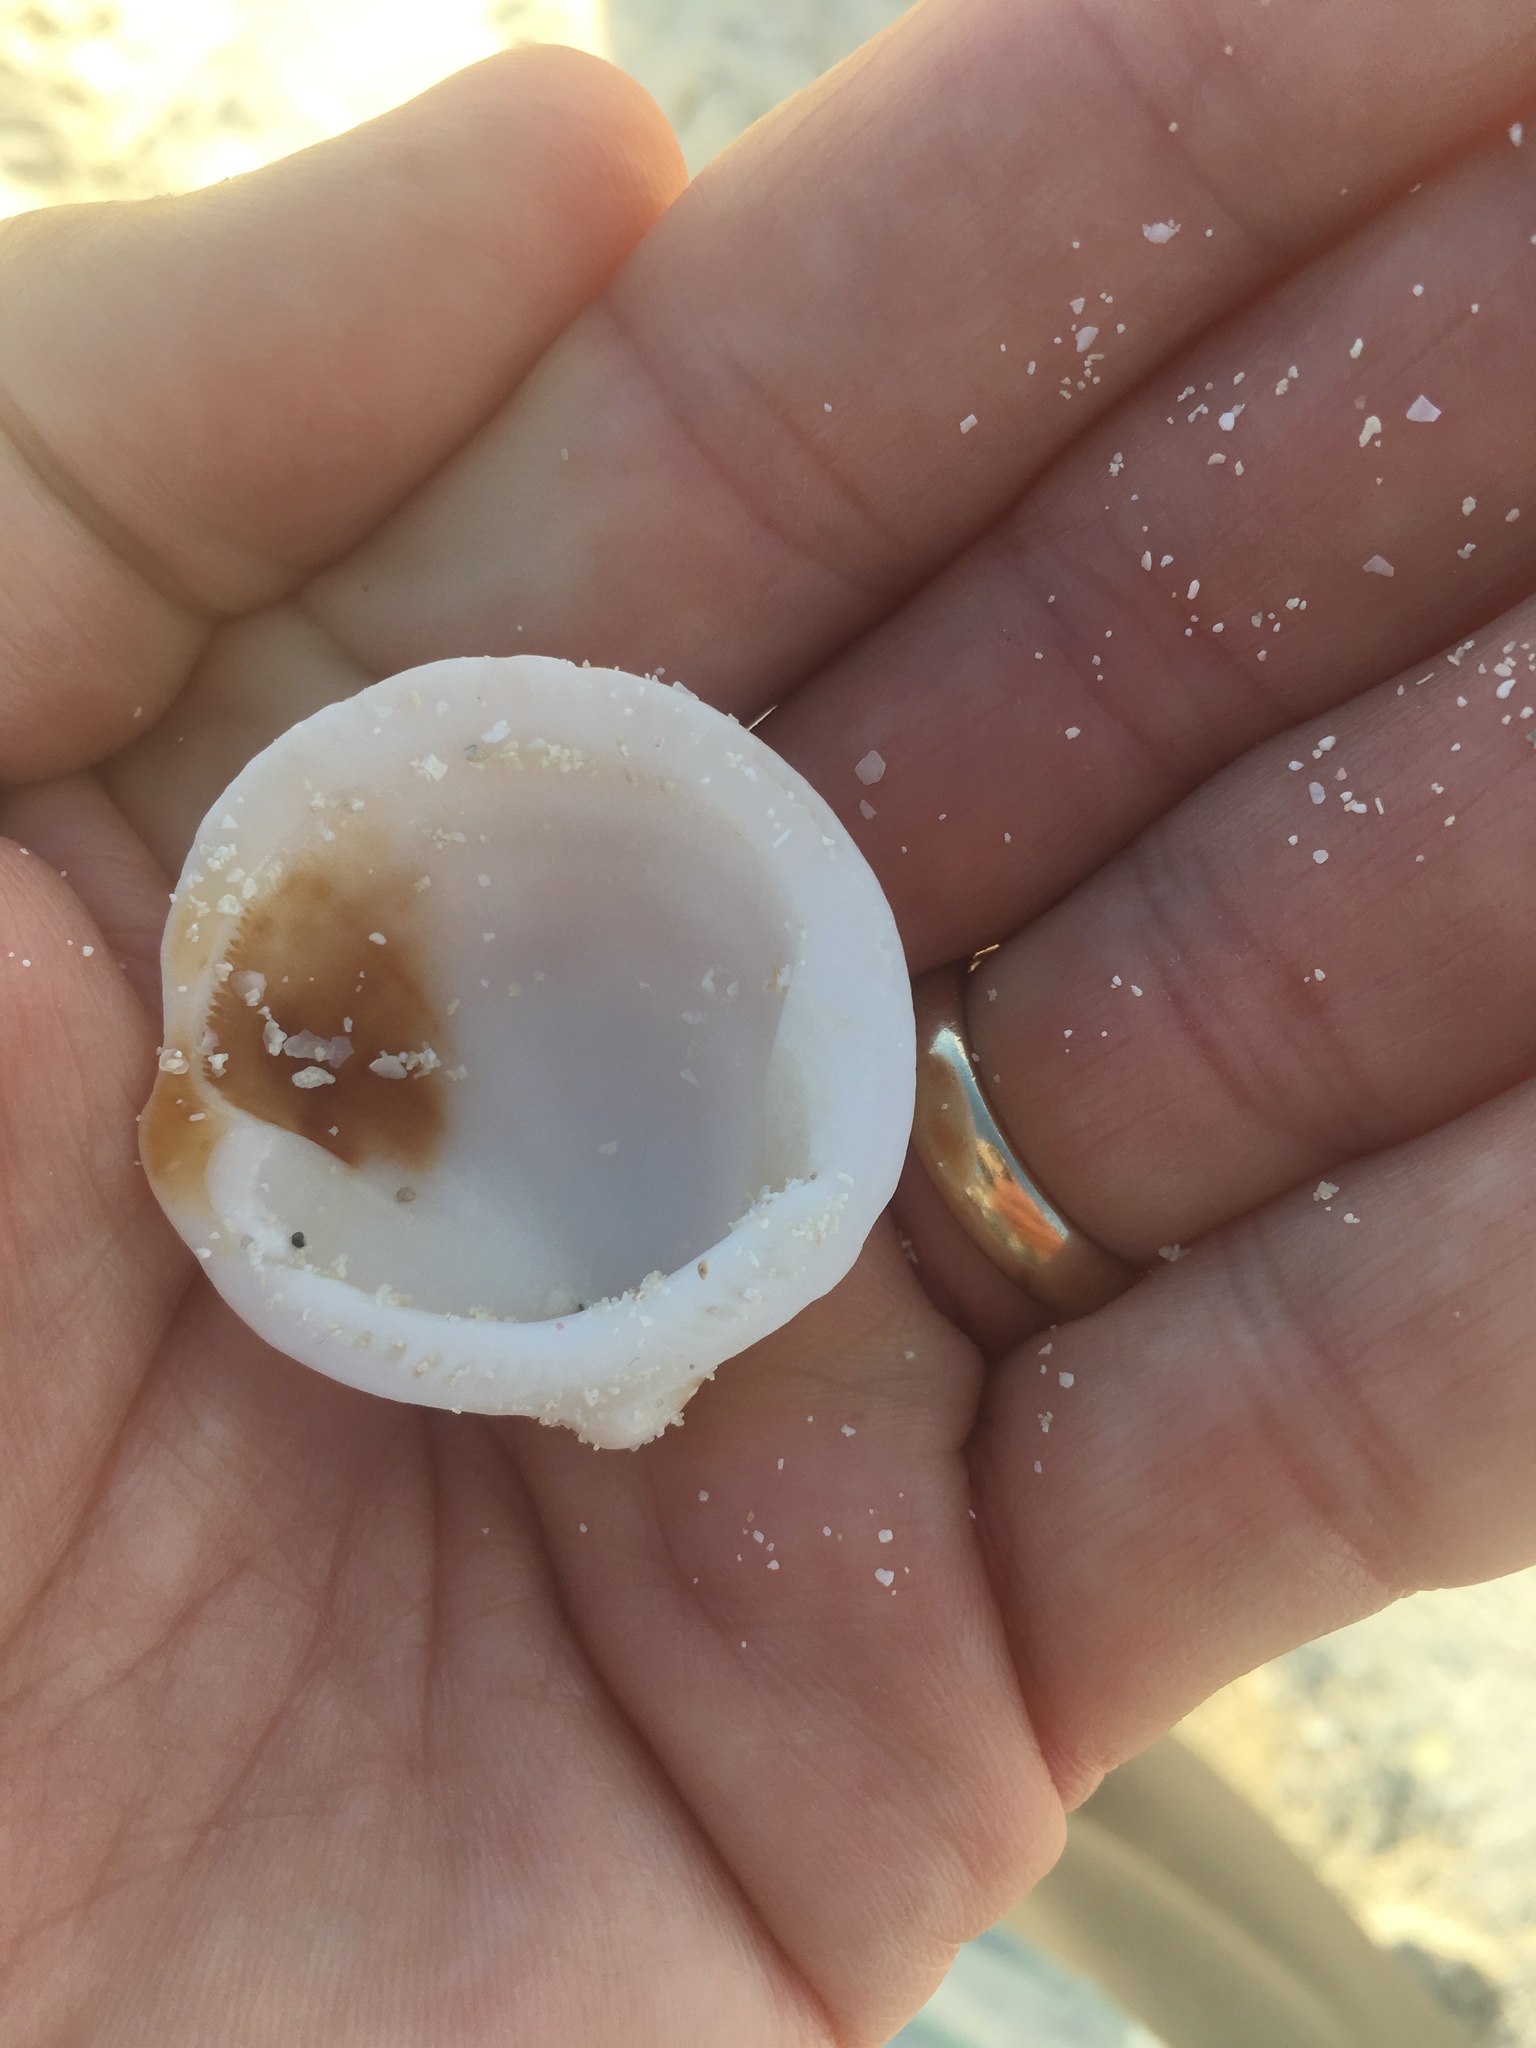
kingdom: Animalia
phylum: Mollusca
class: Bivalvia
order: Arcida
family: Glycymerididae
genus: Glycymeris
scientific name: Glycymeris decussata
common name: Decussate bittersweet
